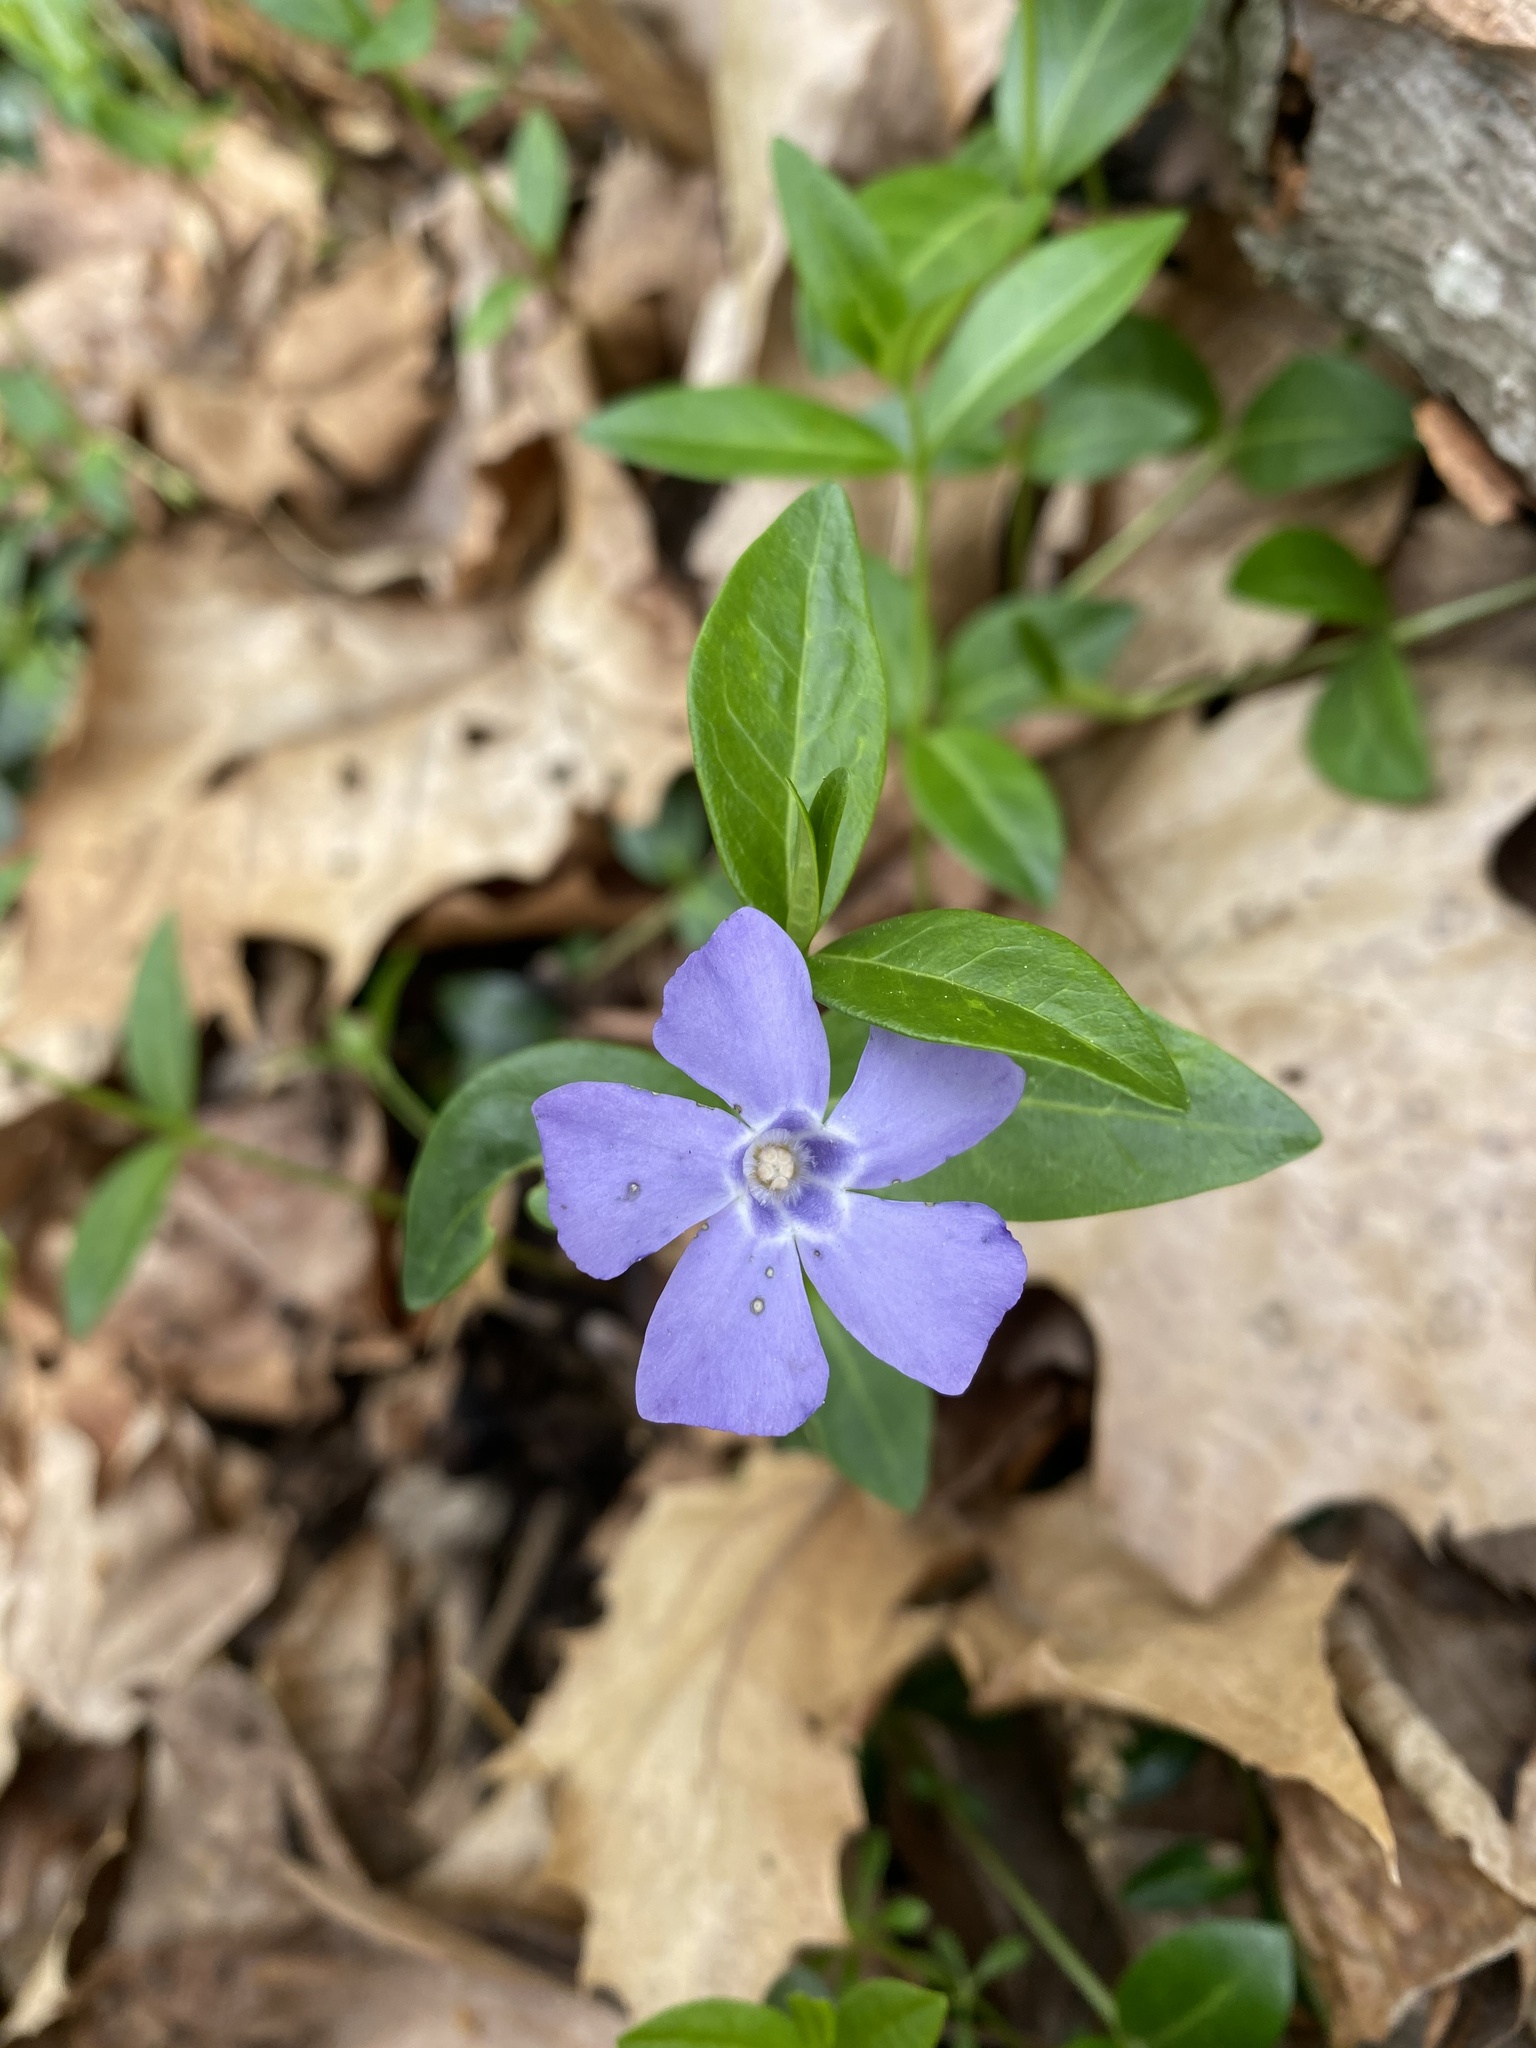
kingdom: Plantae
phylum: Tracheophyta
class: Magnoliopsida
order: Gentianales
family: Apocynaceae
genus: Vinca
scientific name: Vinca minor
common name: Lesser periwinkle
